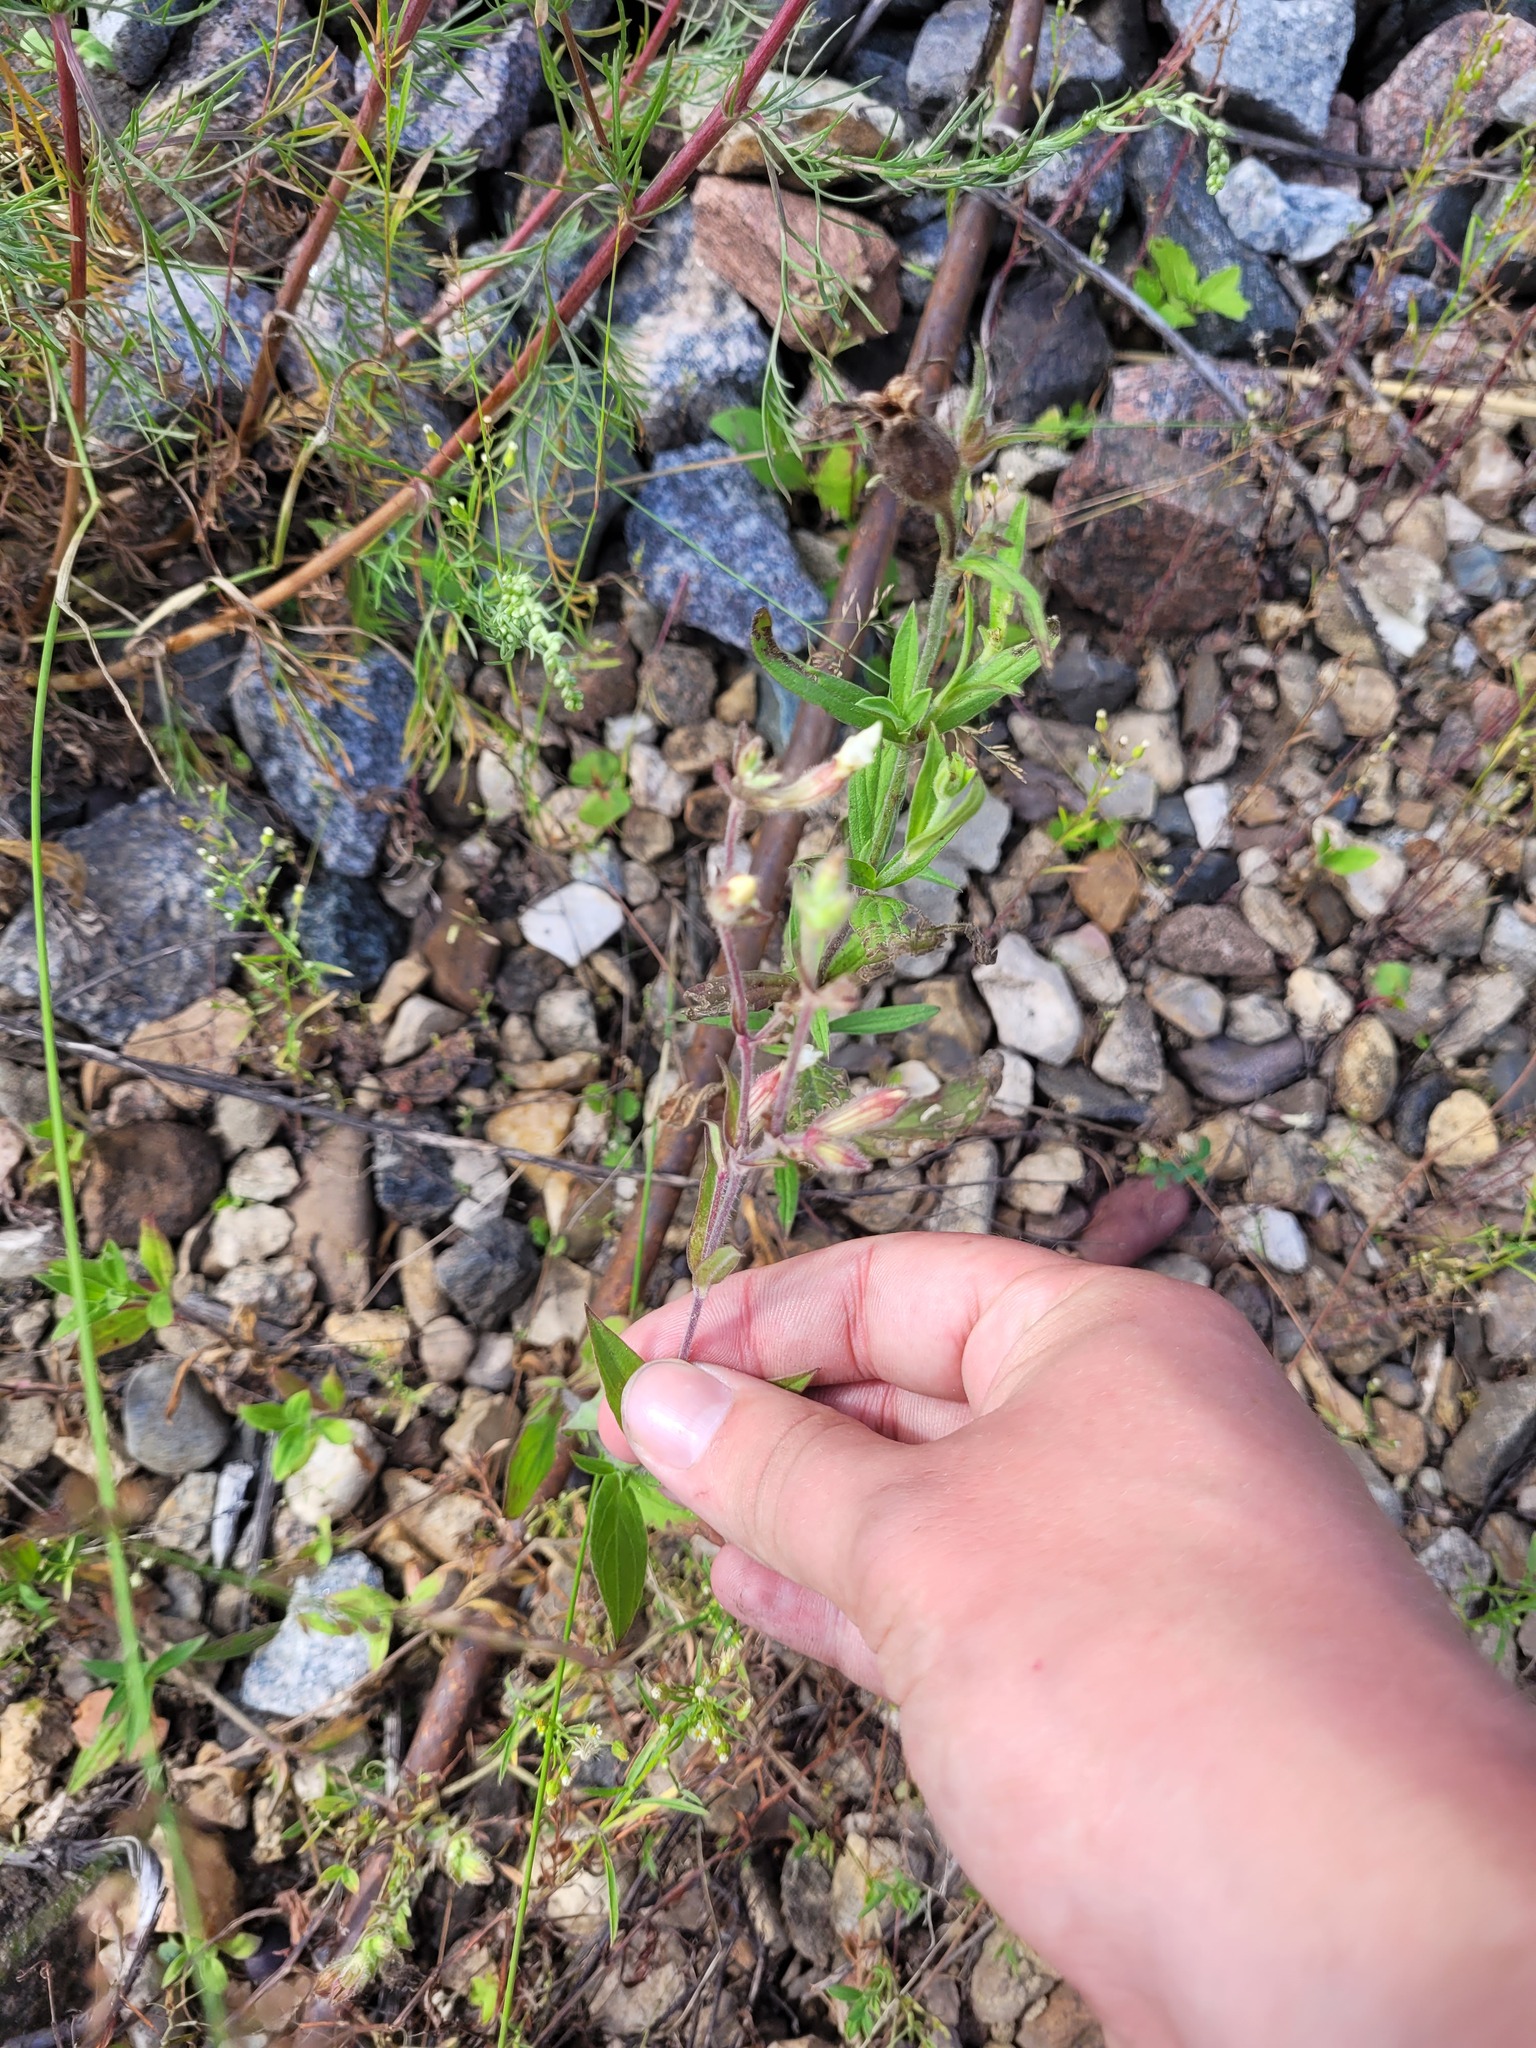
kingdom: Plantae
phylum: Tracheophyta
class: Magnoliopsida
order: Caryophyllales
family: Caryophyllaceae
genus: Silene
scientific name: Silene latifolia
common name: White campion
